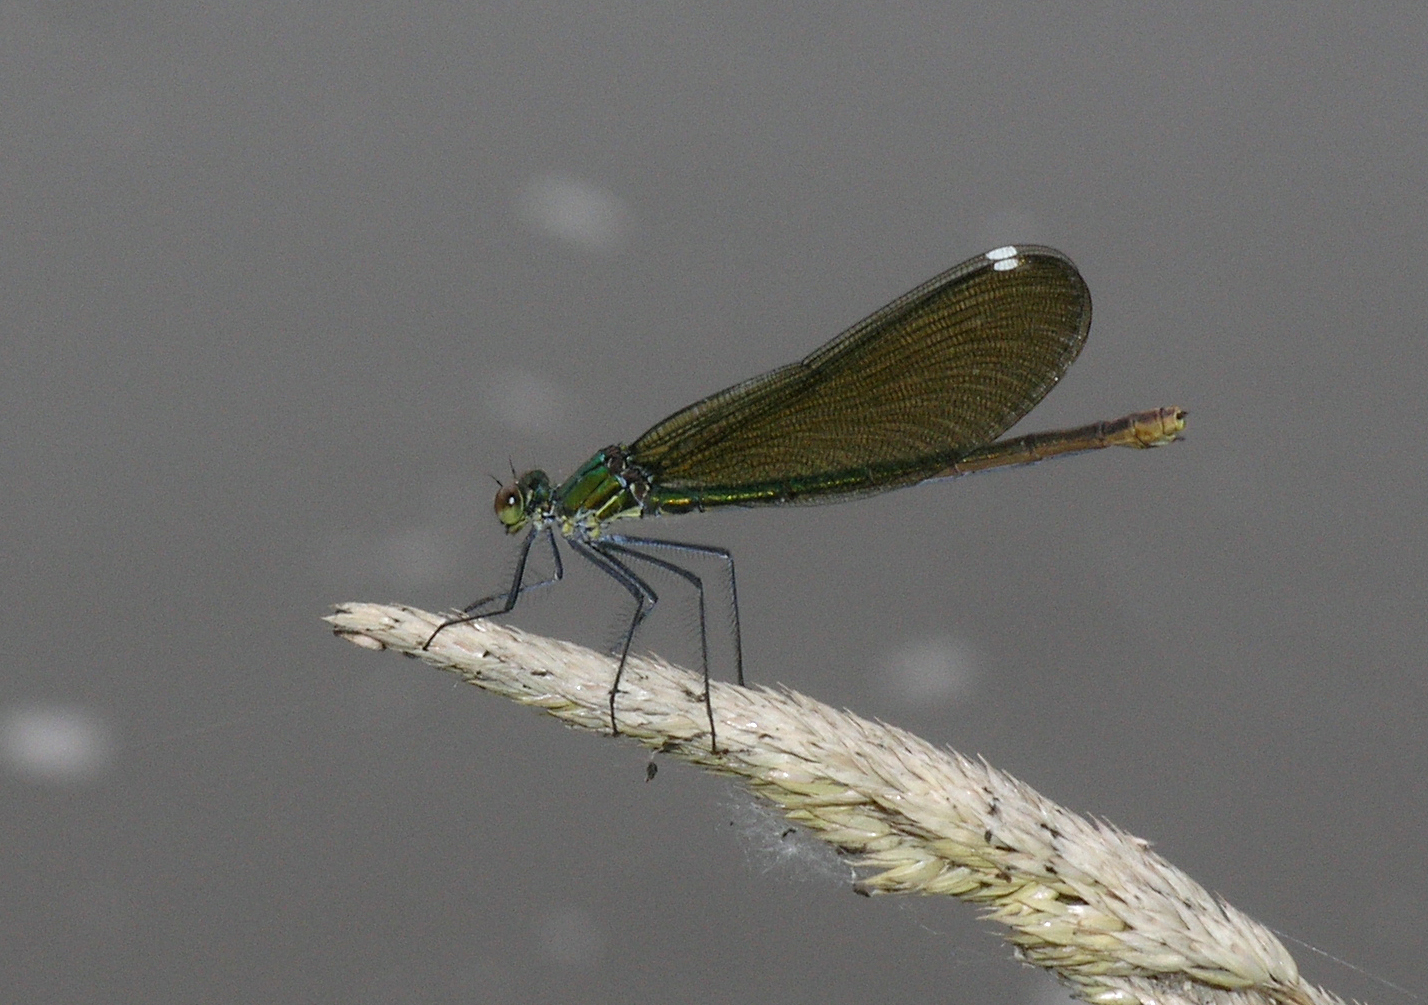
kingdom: Animalia
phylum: Arthropoda
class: Insecta
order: Odonata
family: Calopterygidae
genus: Calopteryx
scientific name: Calopteryx splendens
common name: Banded demoiselle
